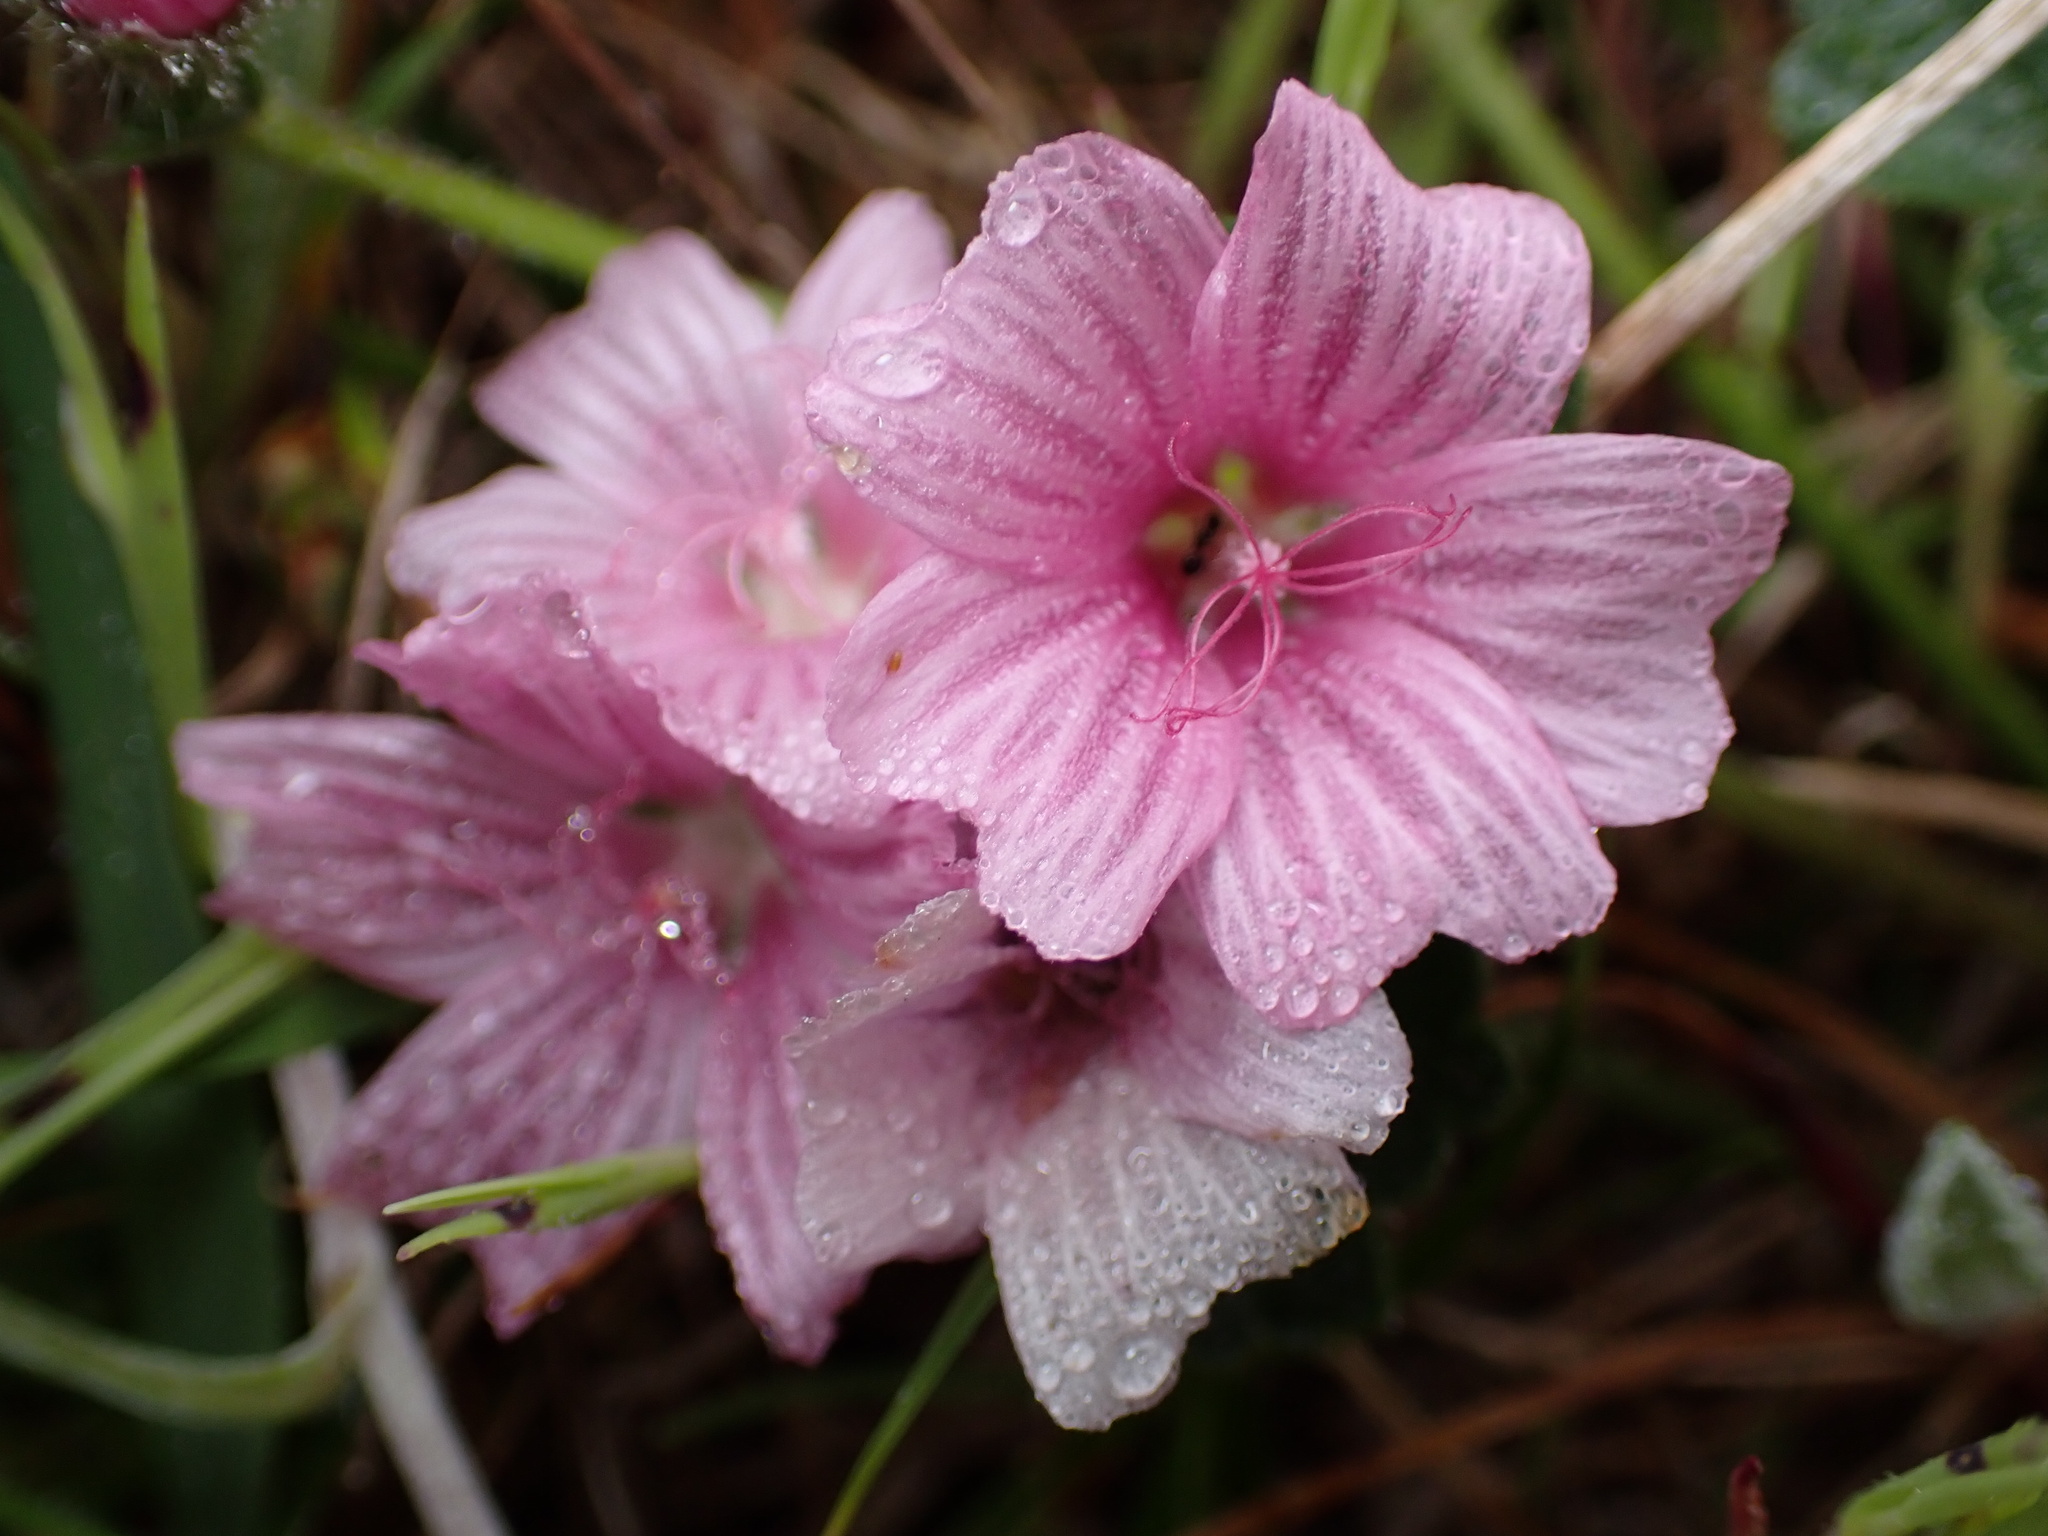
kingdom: Plantae
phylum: Tracheophyta
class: Magnoliopsida
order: Malvales
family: Malvaceae
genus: Sidalcea
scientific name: Sidalcea malviflora
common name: Greek mallow
